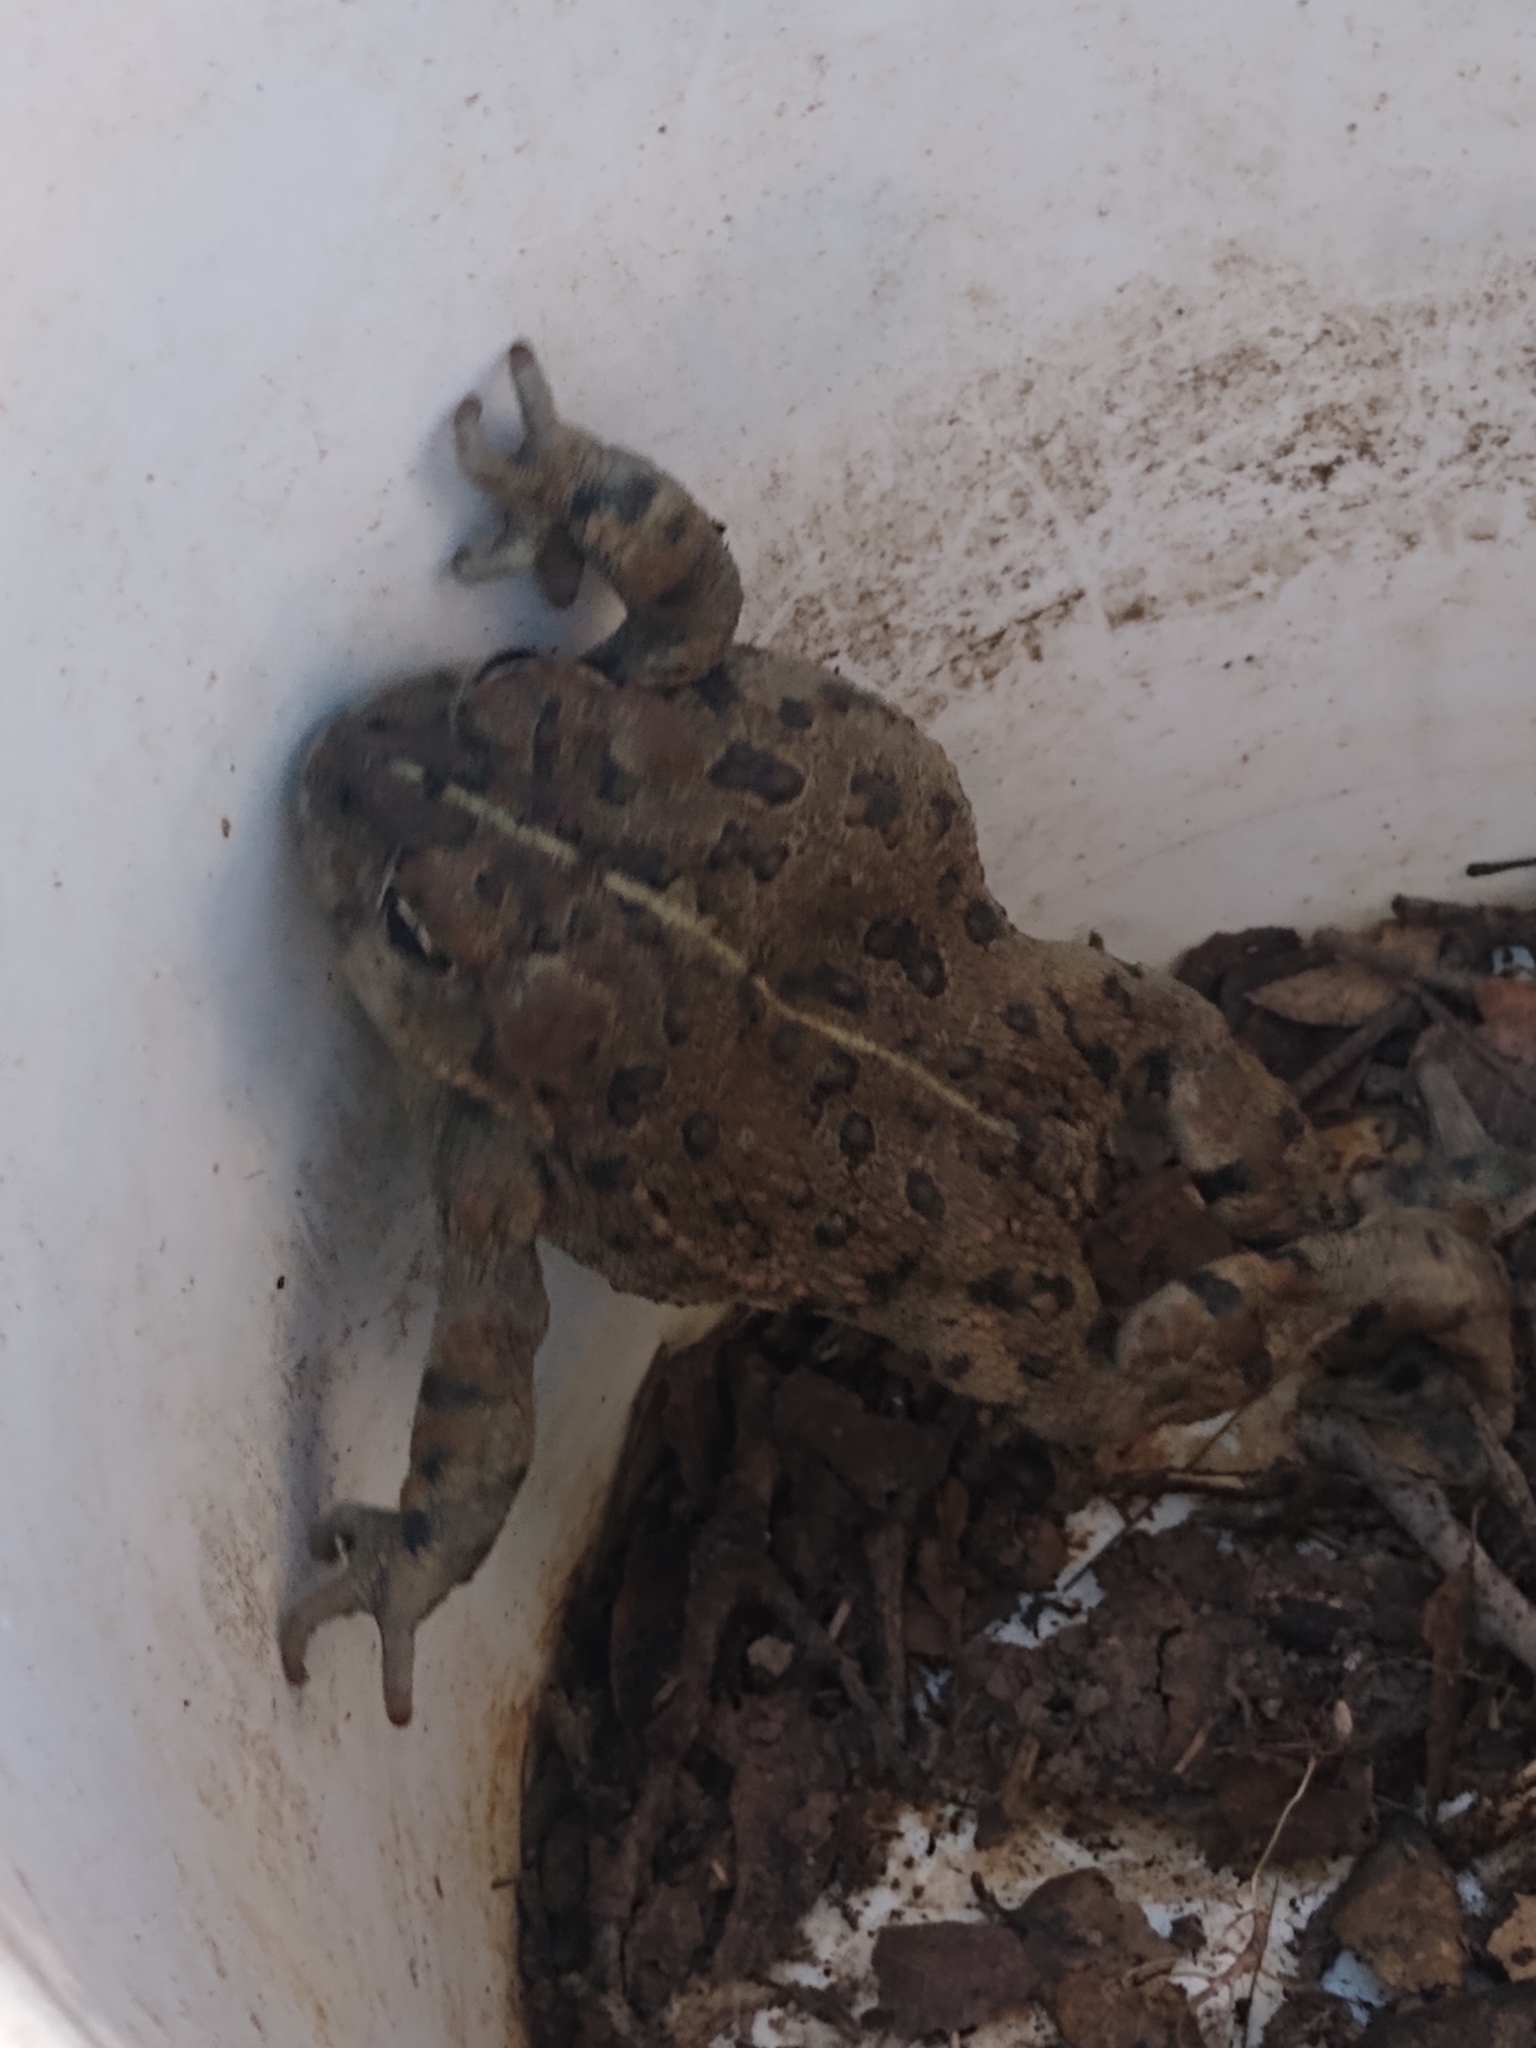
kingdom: Animalia
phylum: Chordata
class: Amphibia
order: Anura
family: Bufonidae
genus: Anaxyrus
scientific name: Anaxyrus boreas
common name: Western toad
